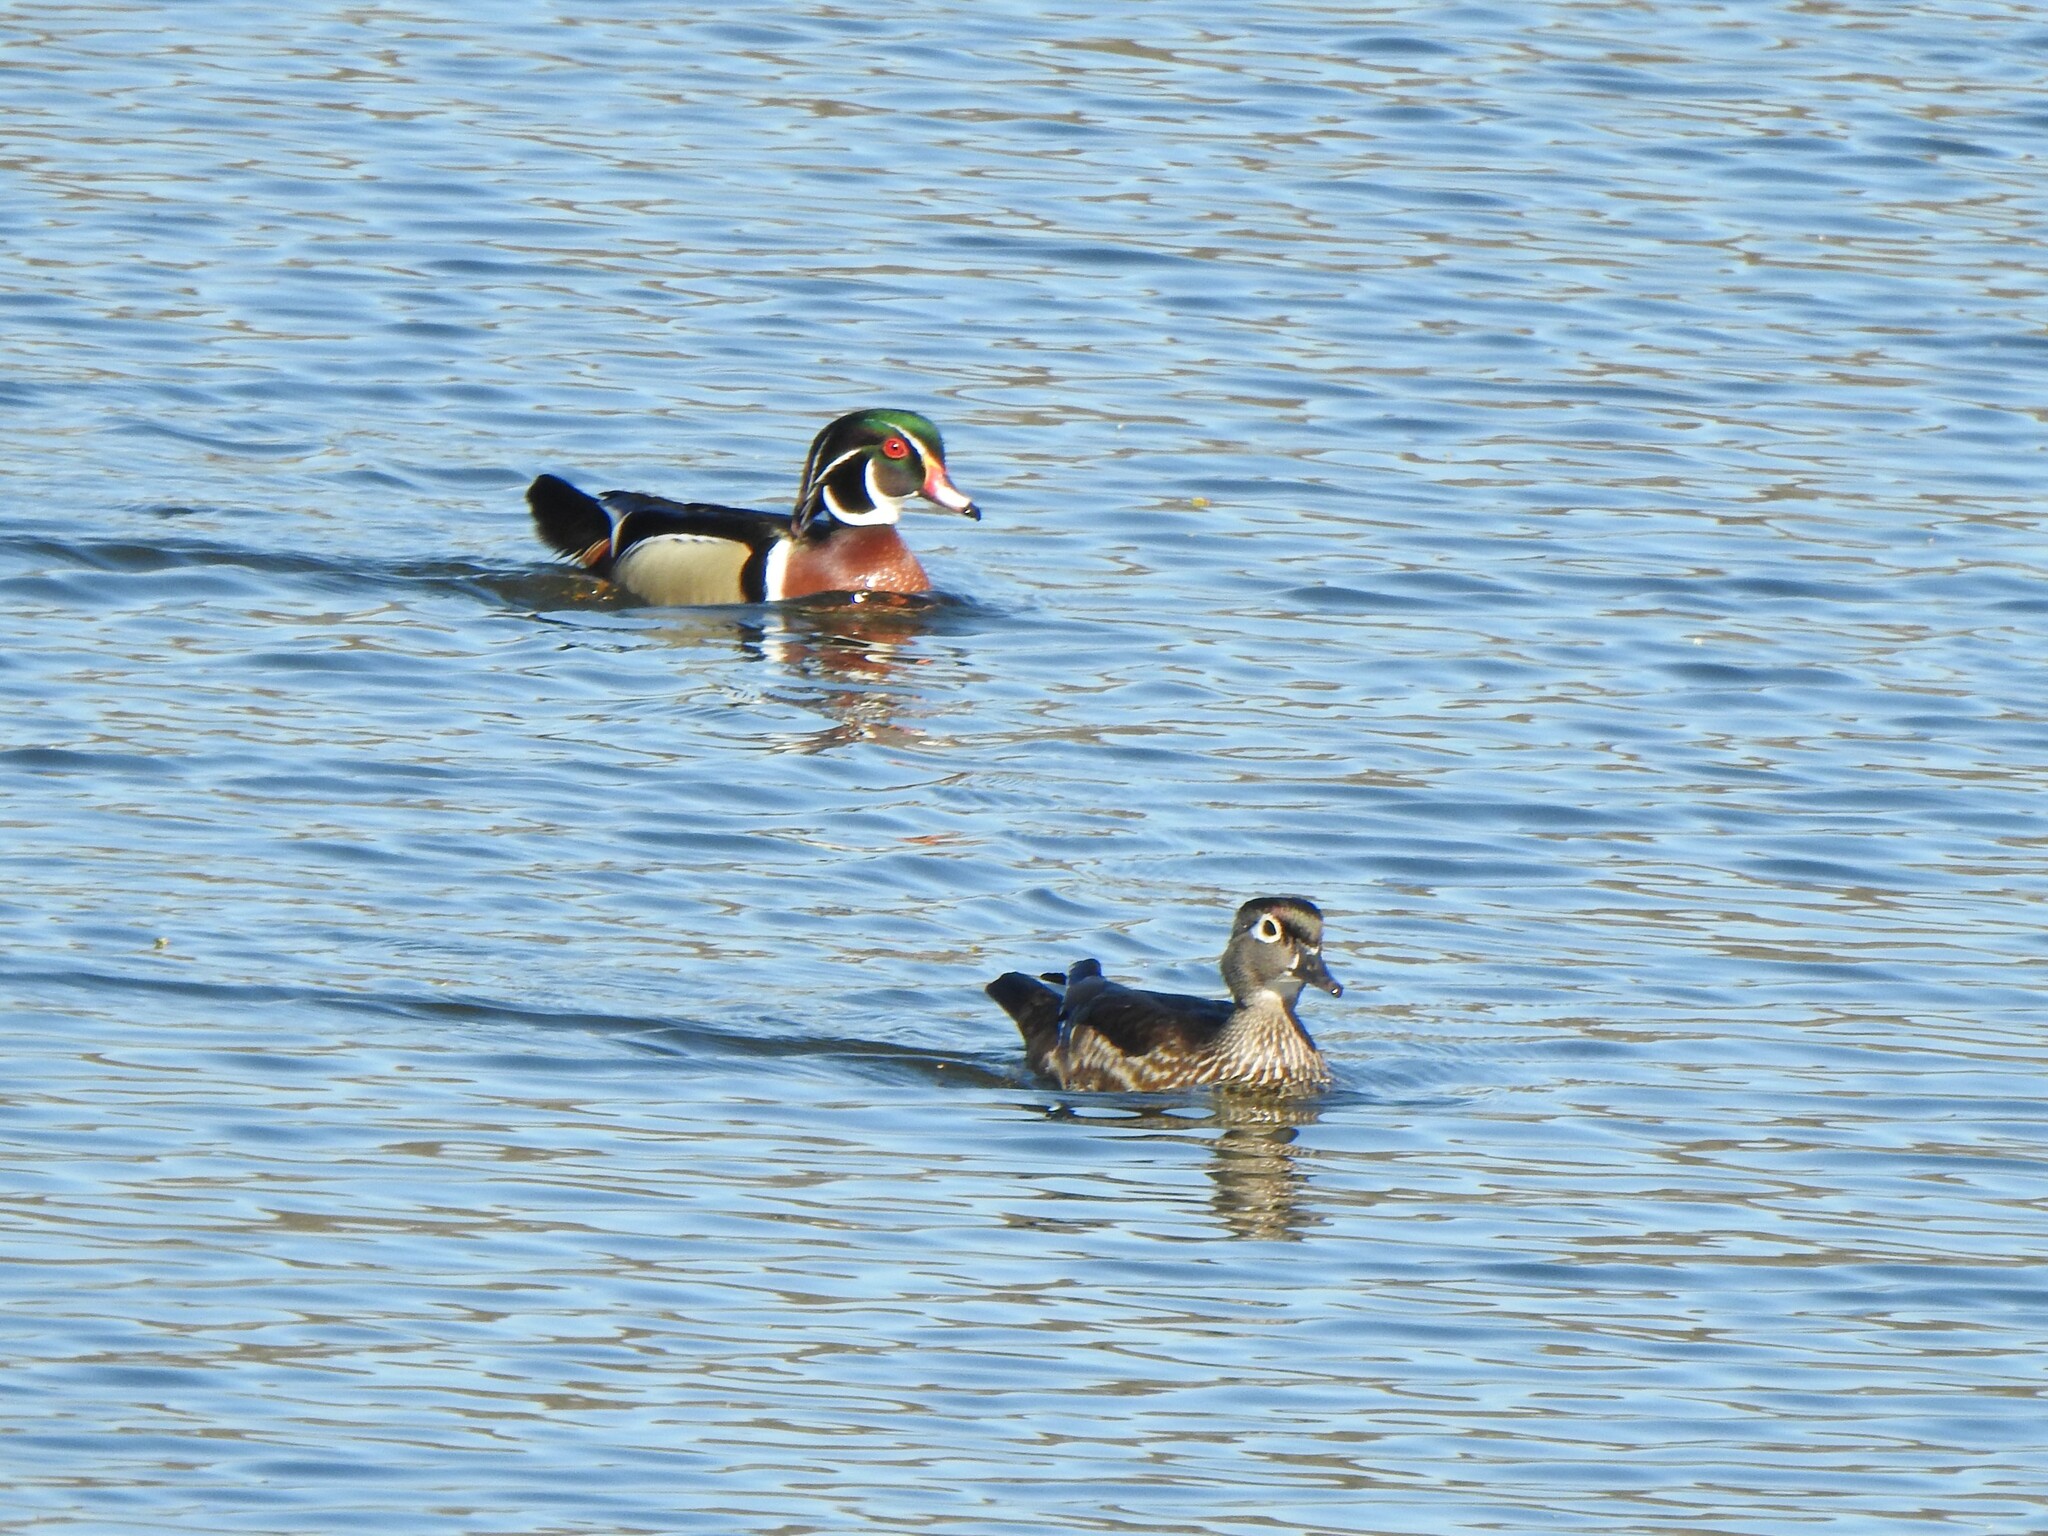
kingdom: Animalia
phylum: Chordata
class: Aves
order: Anseriformes
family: Anatidae
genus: Aix
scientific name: Aix sponsa
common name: Wood duck
